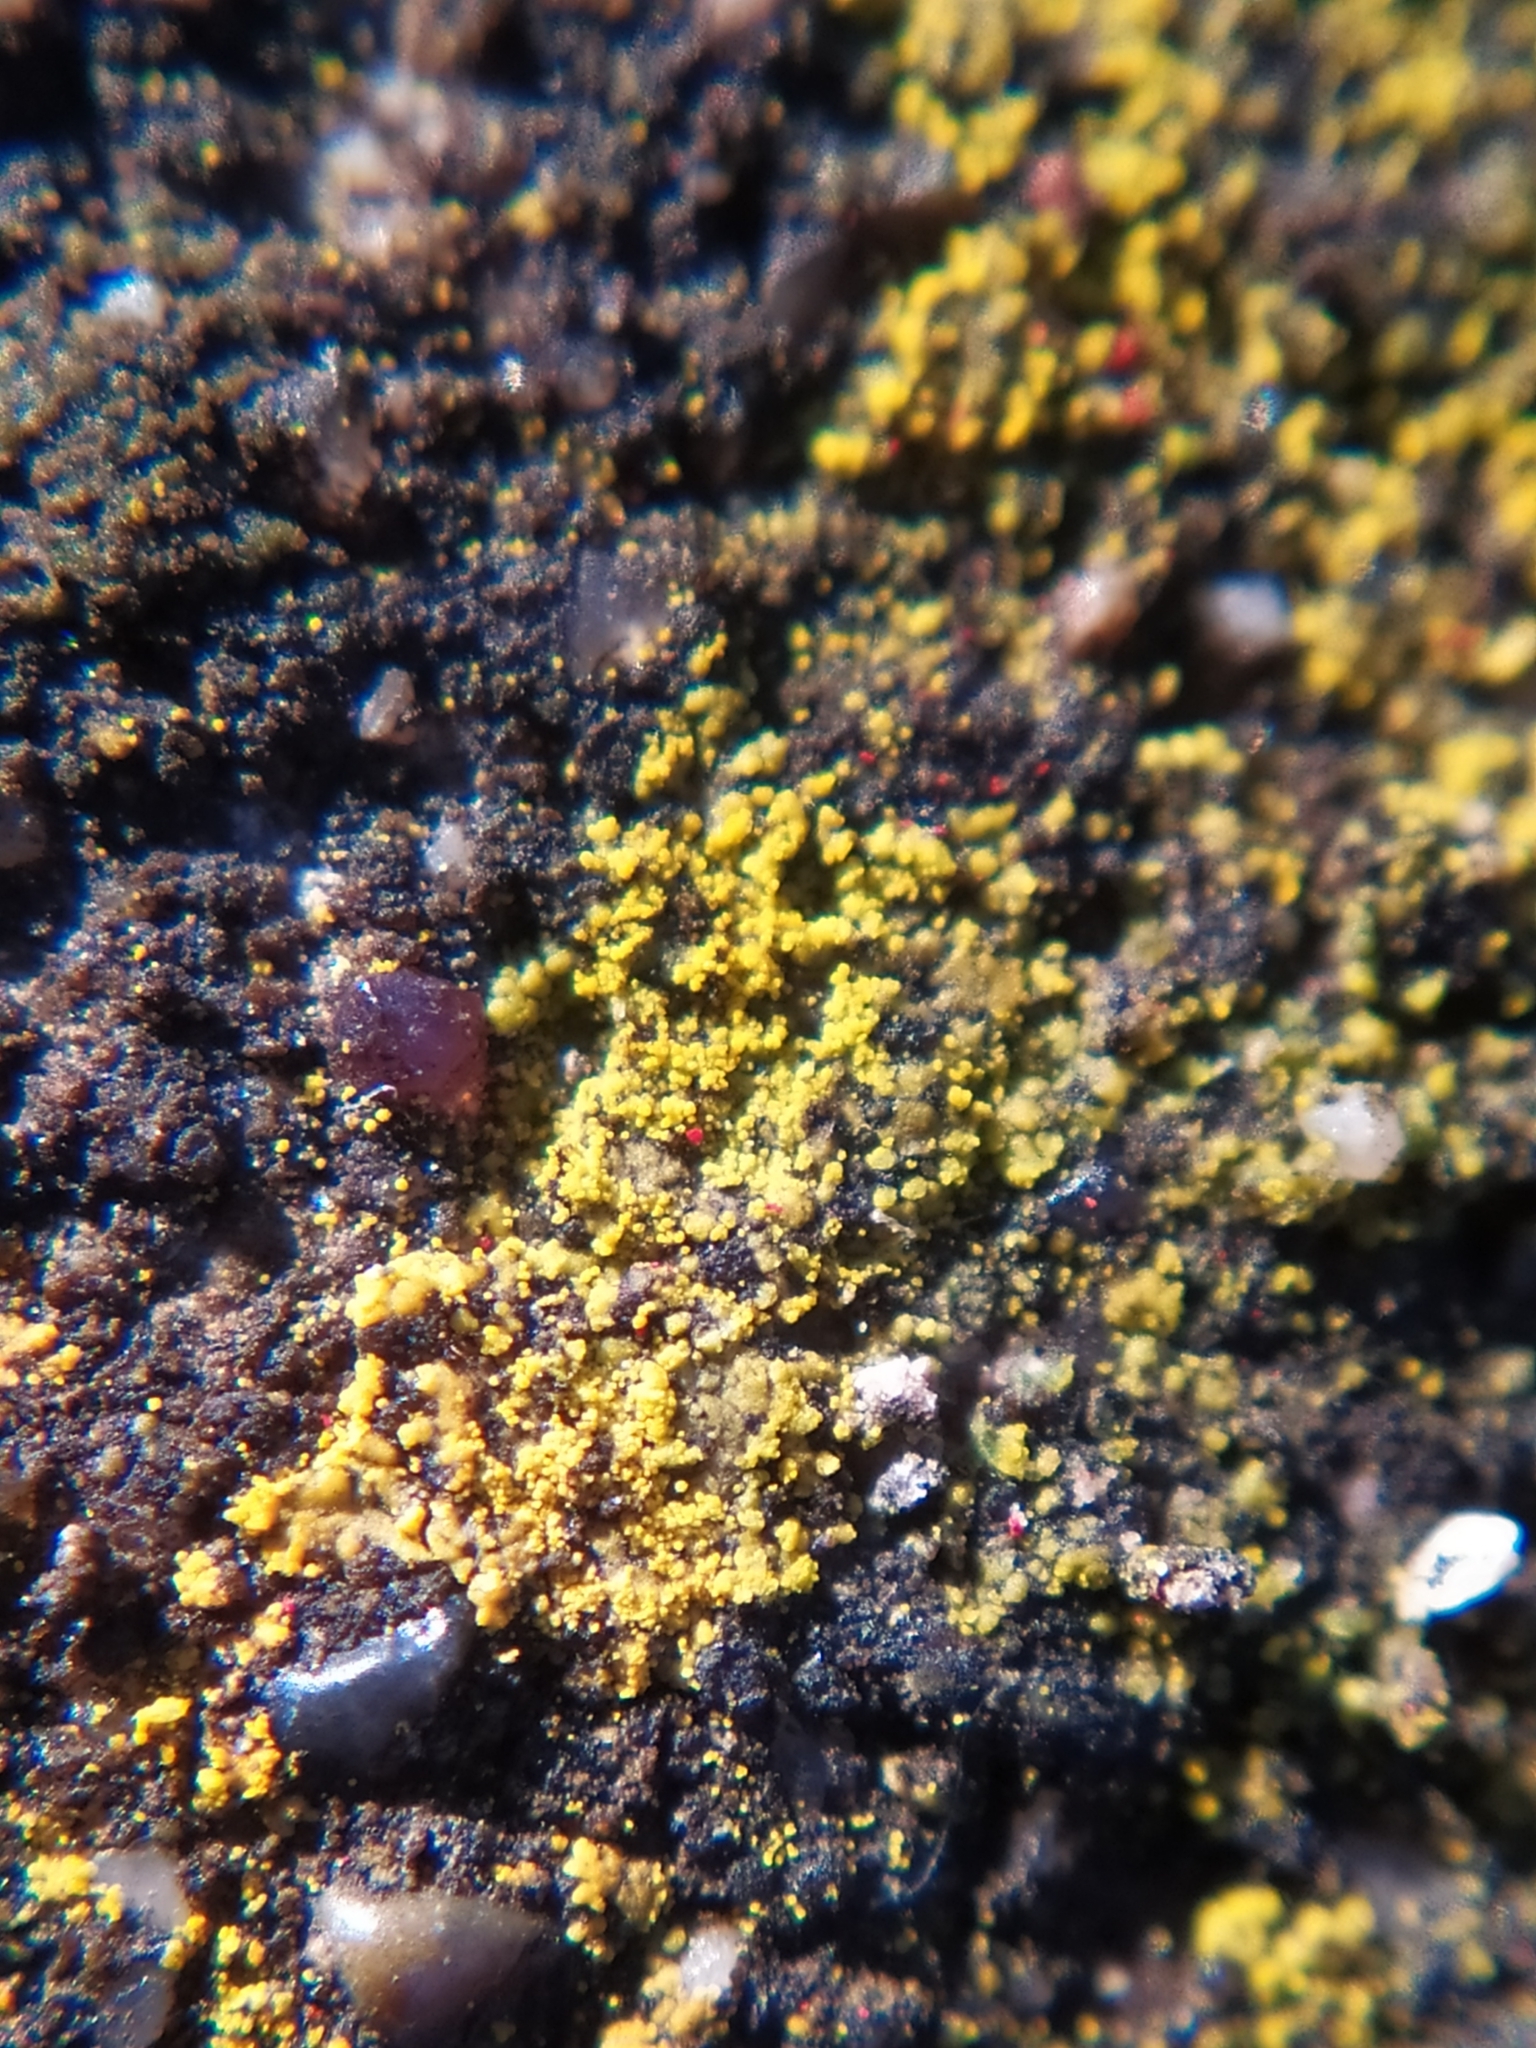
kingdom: Fungi
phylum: Ascomycota
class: Lecanoromycetes
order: Teloschistales
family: Teloschistaceae
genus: Flavoplaca
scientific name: Flavoplaca
